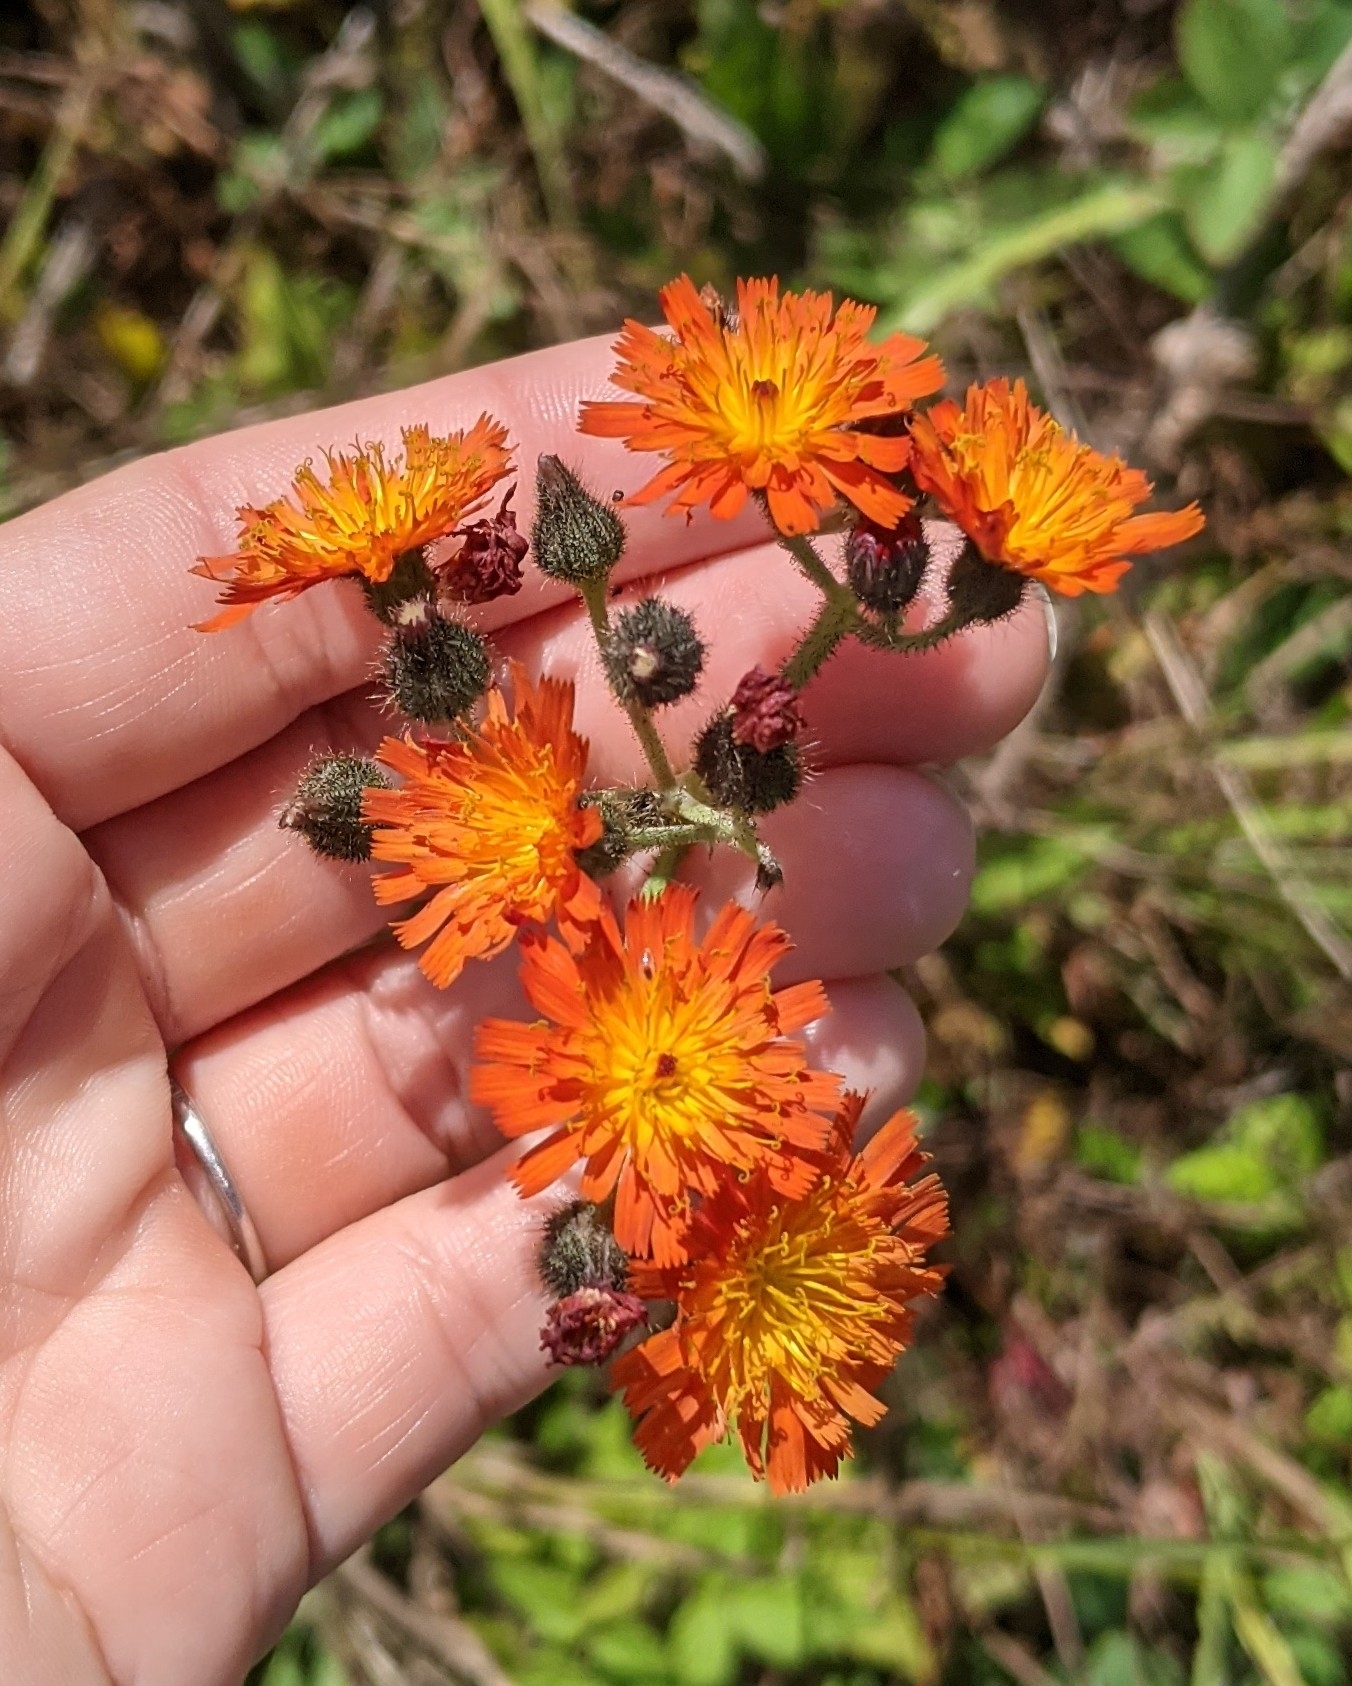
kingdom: Plantae
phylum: Tracheophyta
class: Magnoliopsida
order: Asterales
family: Asteraceae
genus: Pilosella
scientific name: Pilosella aurantiaca
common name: Fox-and-cubs
